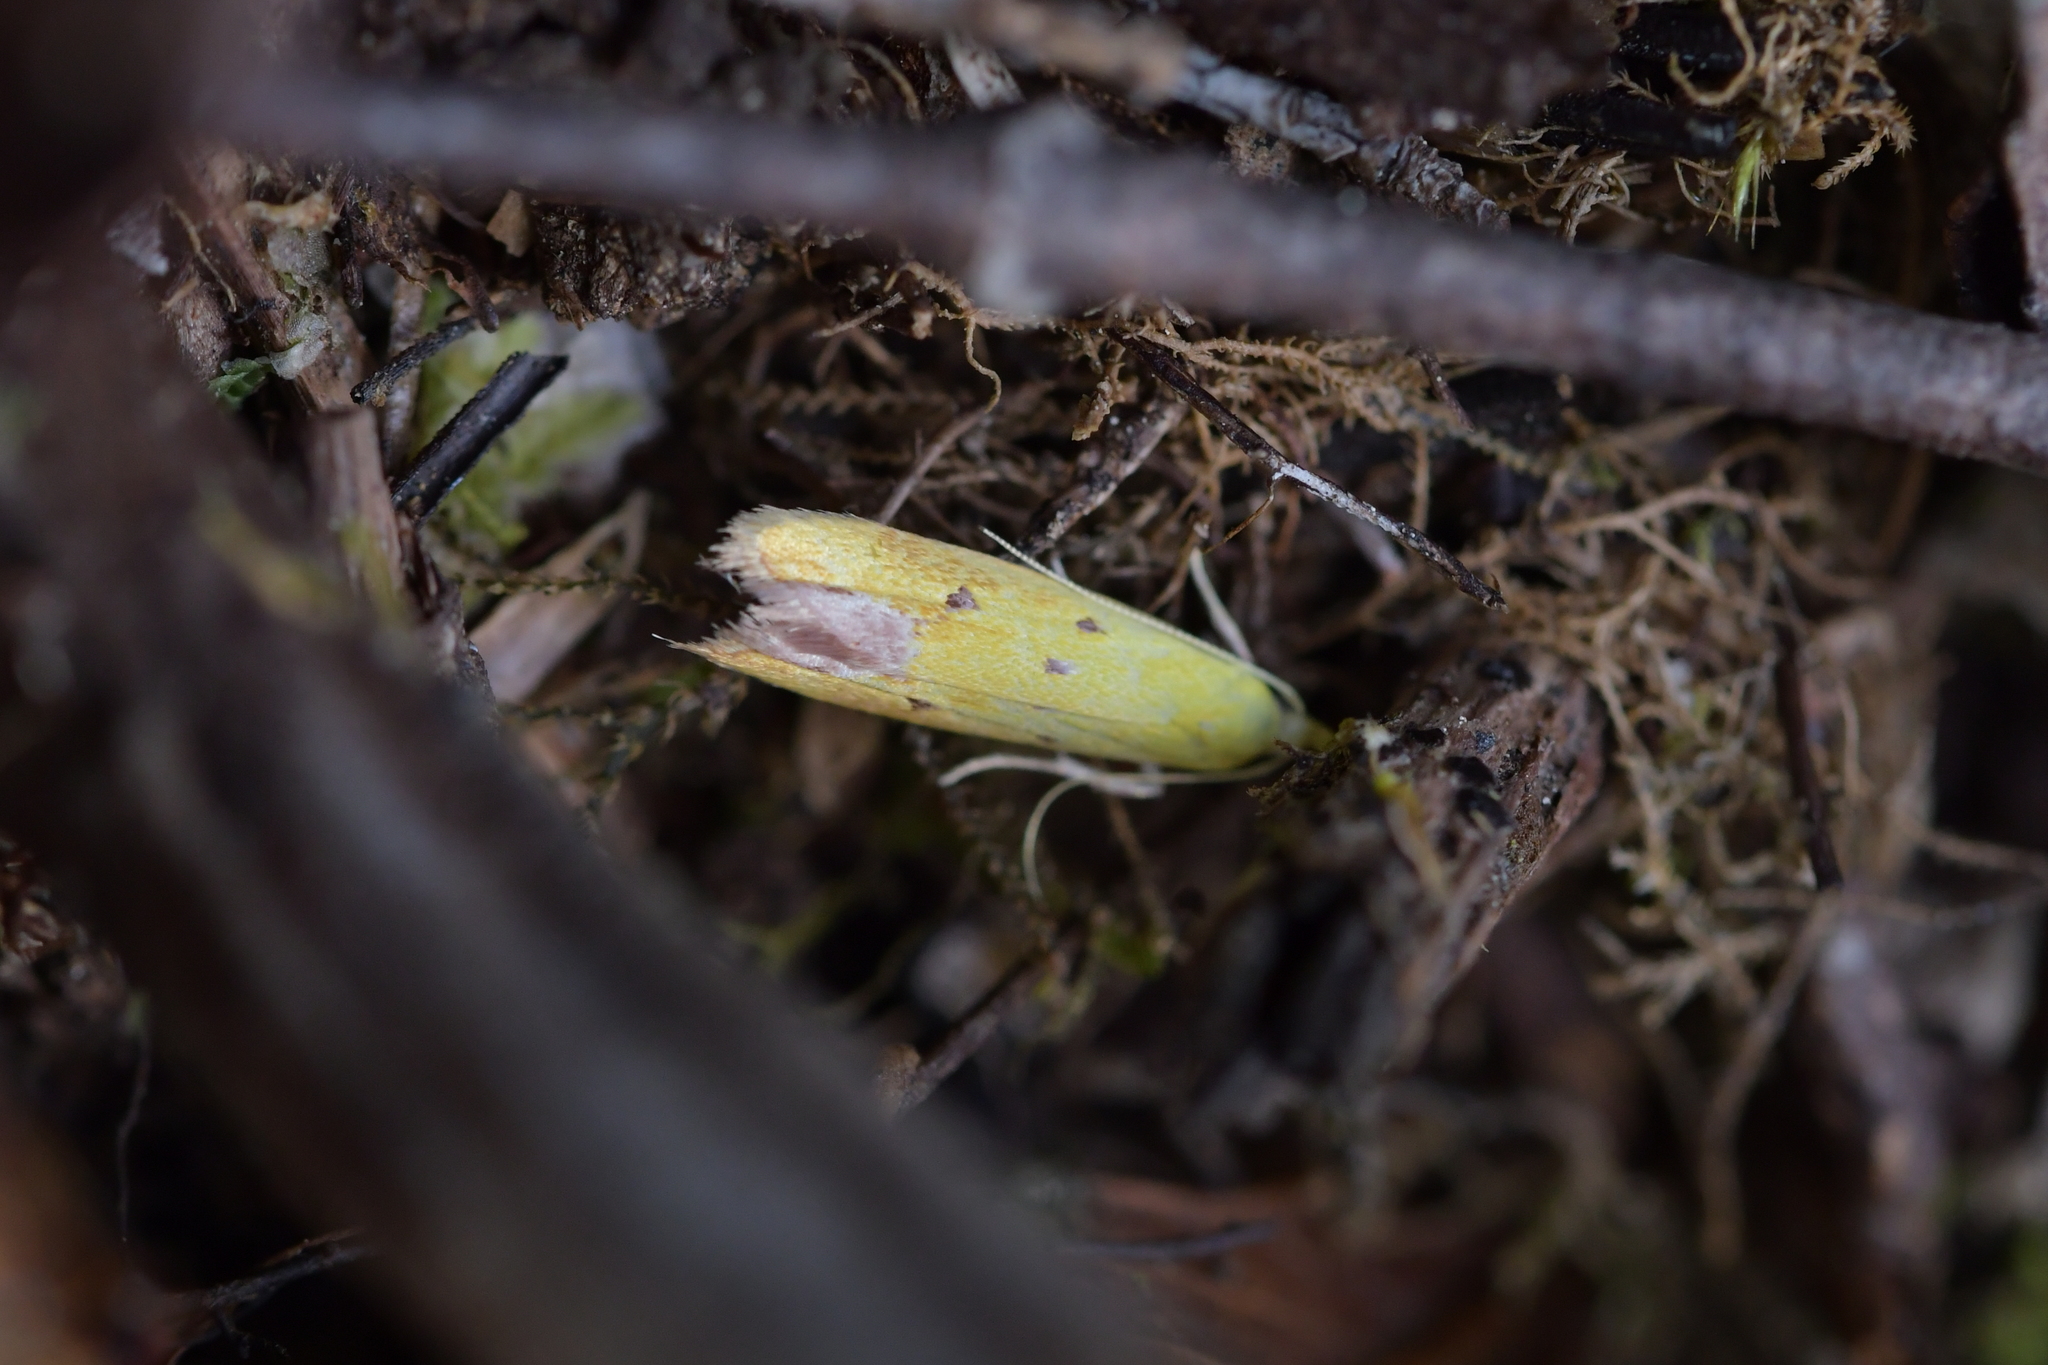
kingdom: Animalia
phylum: Arthropoda
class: Insecta
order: Lepidoptera
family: Oecophoridae
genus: Gymnobathra
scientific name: Gymnobathra flavidella
